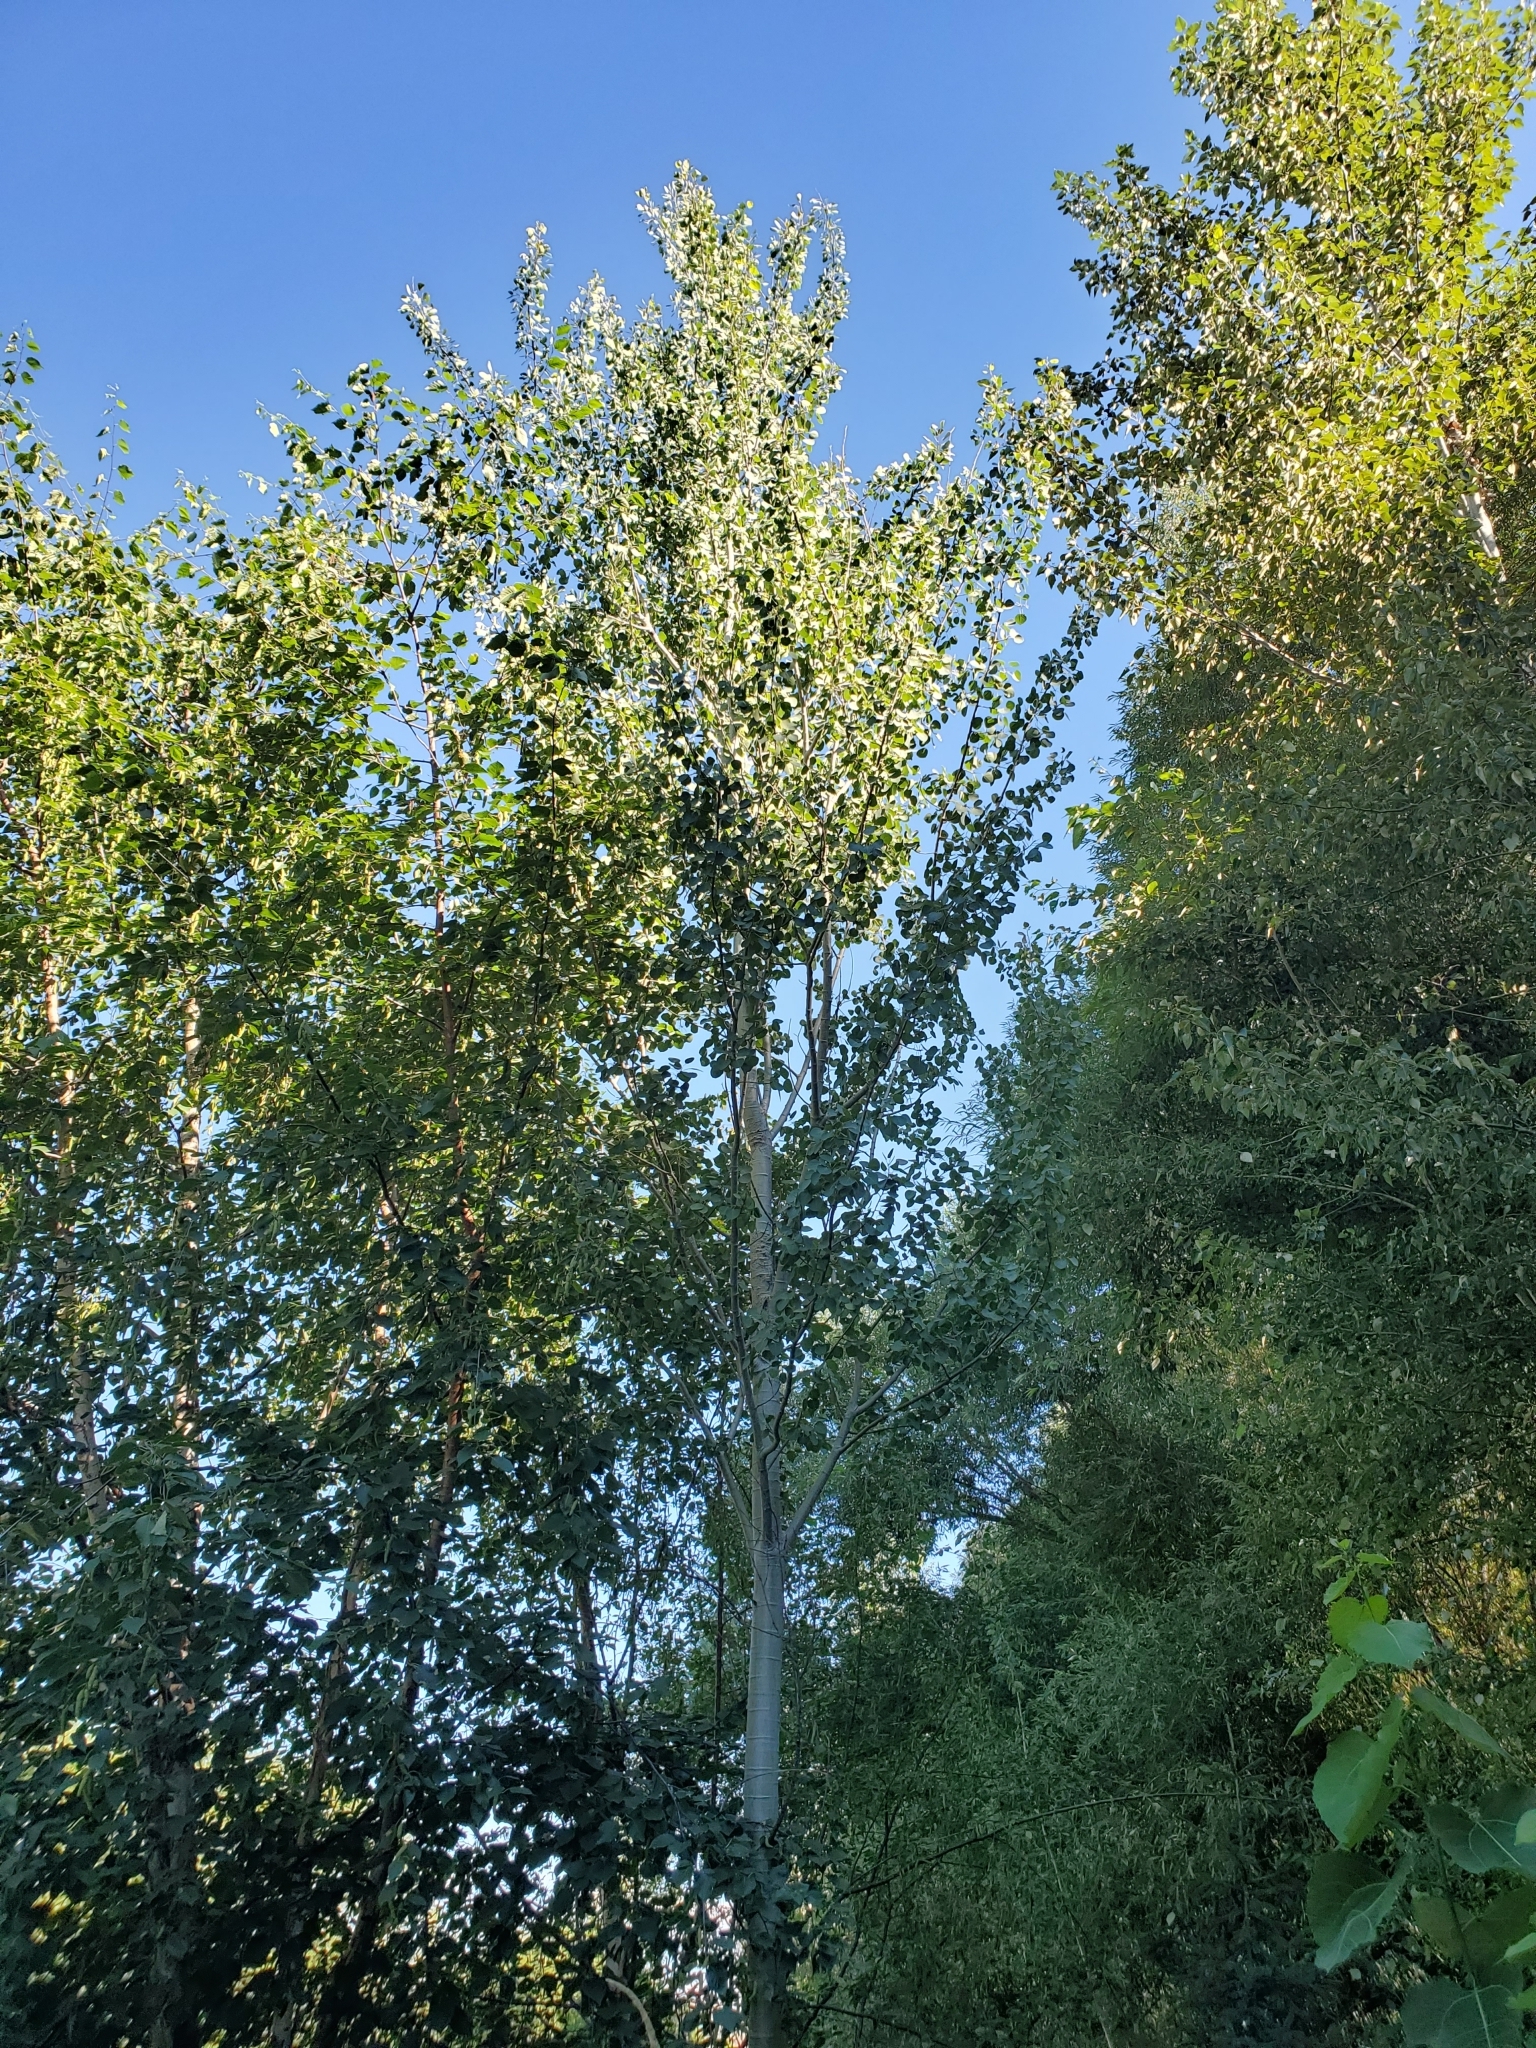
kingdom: Plantae
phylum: Tracheophyta
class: Magnoliopsida
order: Malpighiales
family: Salicaceae
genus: Populus
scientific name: Populus tremuloides
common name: Quaking aspen
